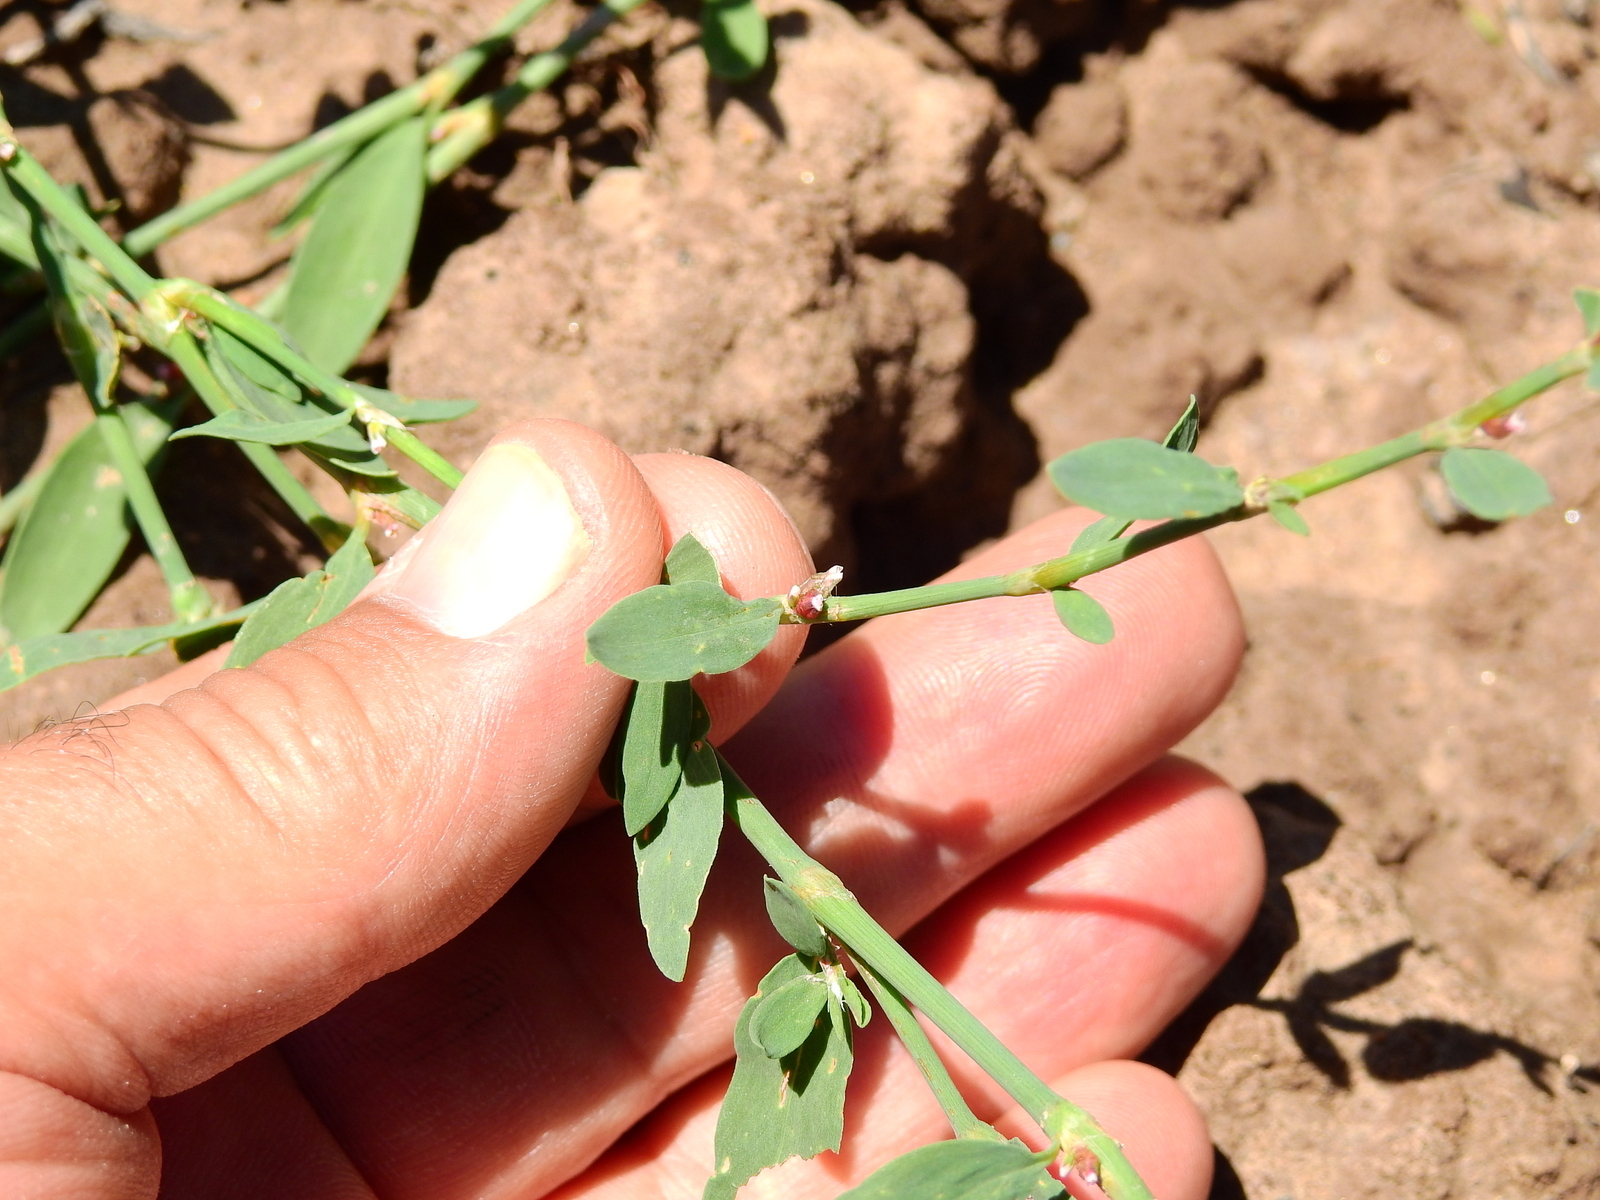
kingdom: Plantae
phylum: Tracheophyta
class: Magnoliopsida
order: Caryophyllales
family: Polygonaceae
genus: Polygonum
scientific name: Polygonum aviculare
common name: Prostrate knotweed
